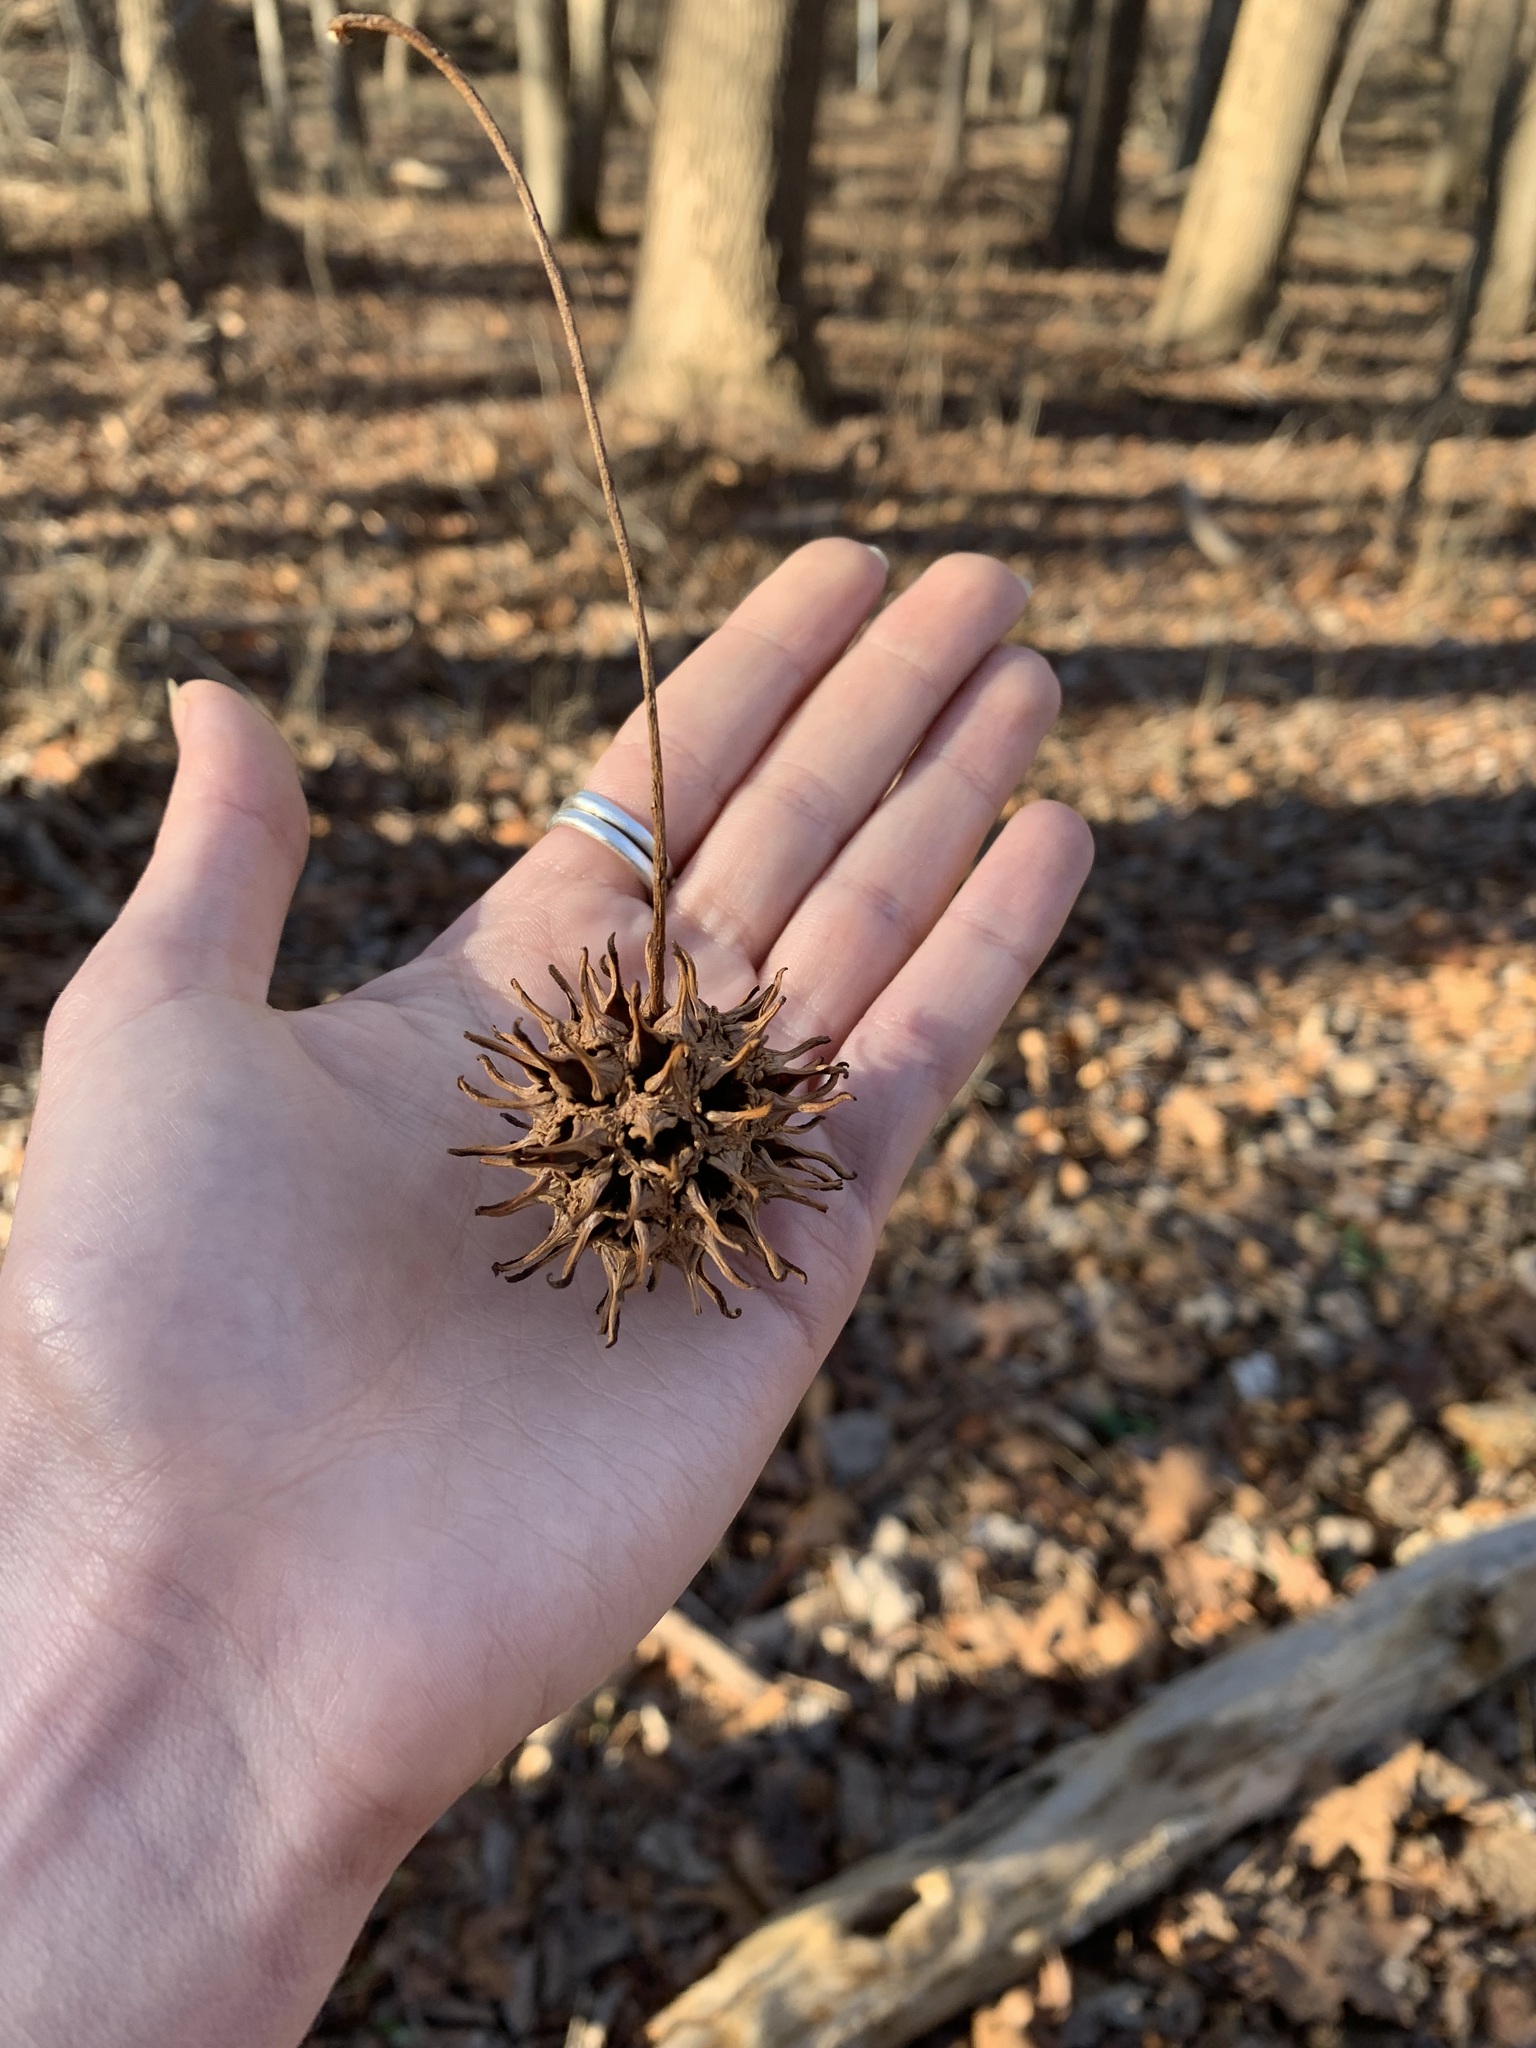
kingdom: Plantae
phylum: Tracheophyta
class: Magnoliopsida
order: Saxifragales
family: Altingiaceae
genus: Liquidambar
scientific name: Liquidambar styraciflua
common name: Sweet gum
